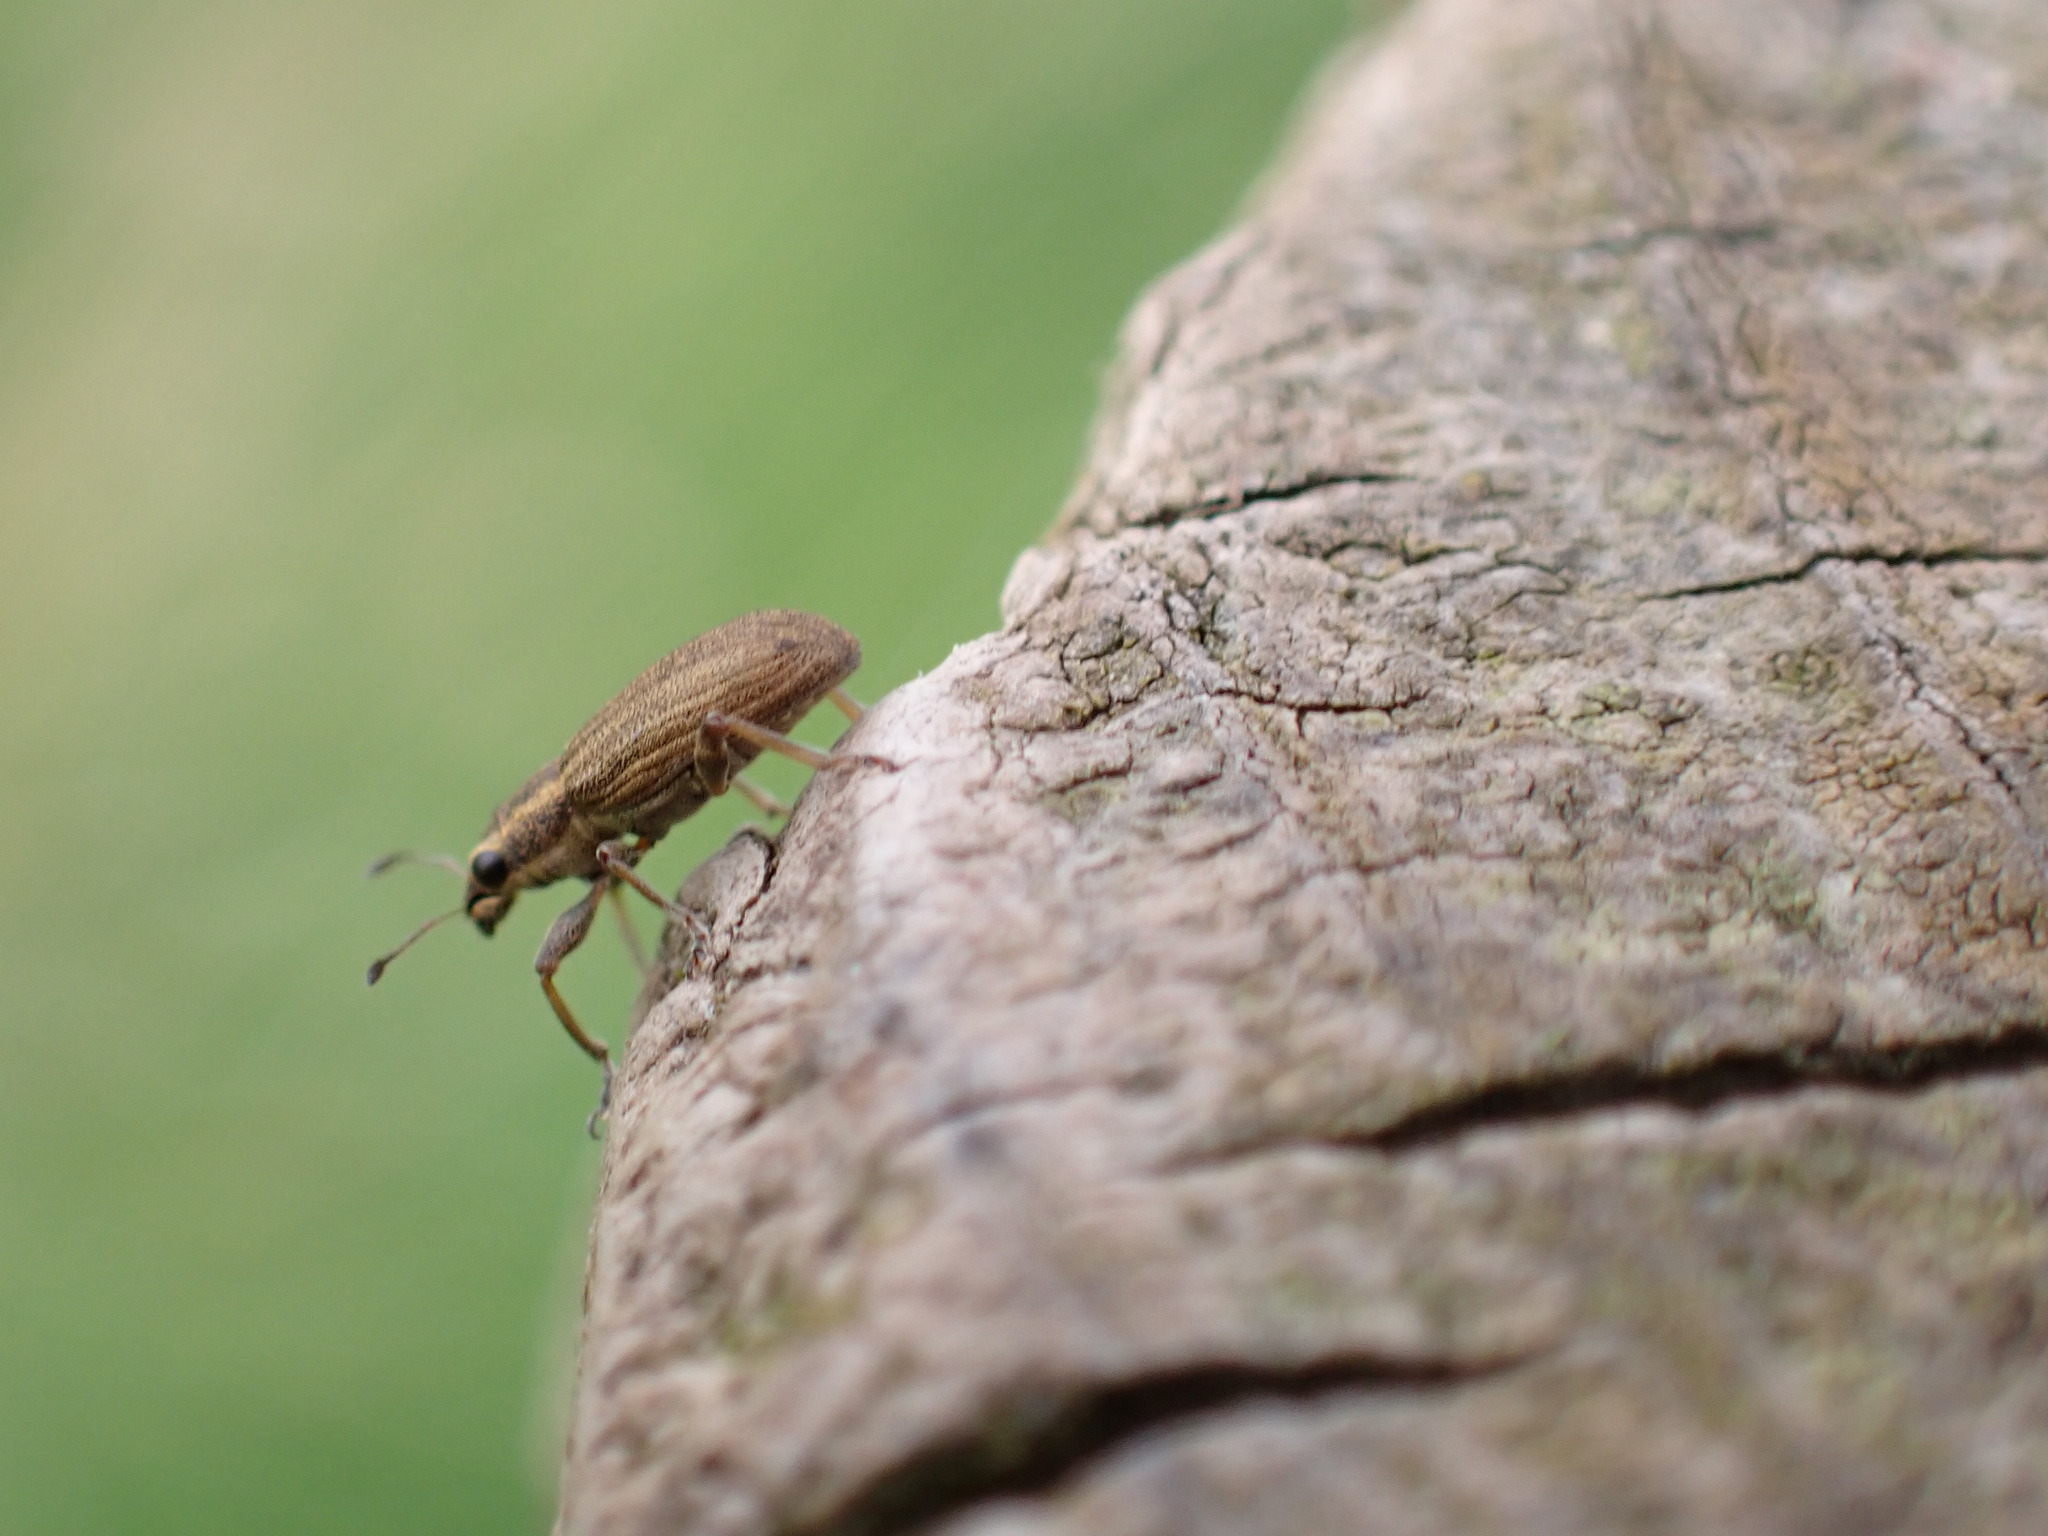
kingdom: Animalia
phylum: Arthropoda
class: Insecta
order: Coleoptera
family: Curculionidae
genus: Sitona
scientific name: Sitona lineatus
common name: Weevil
